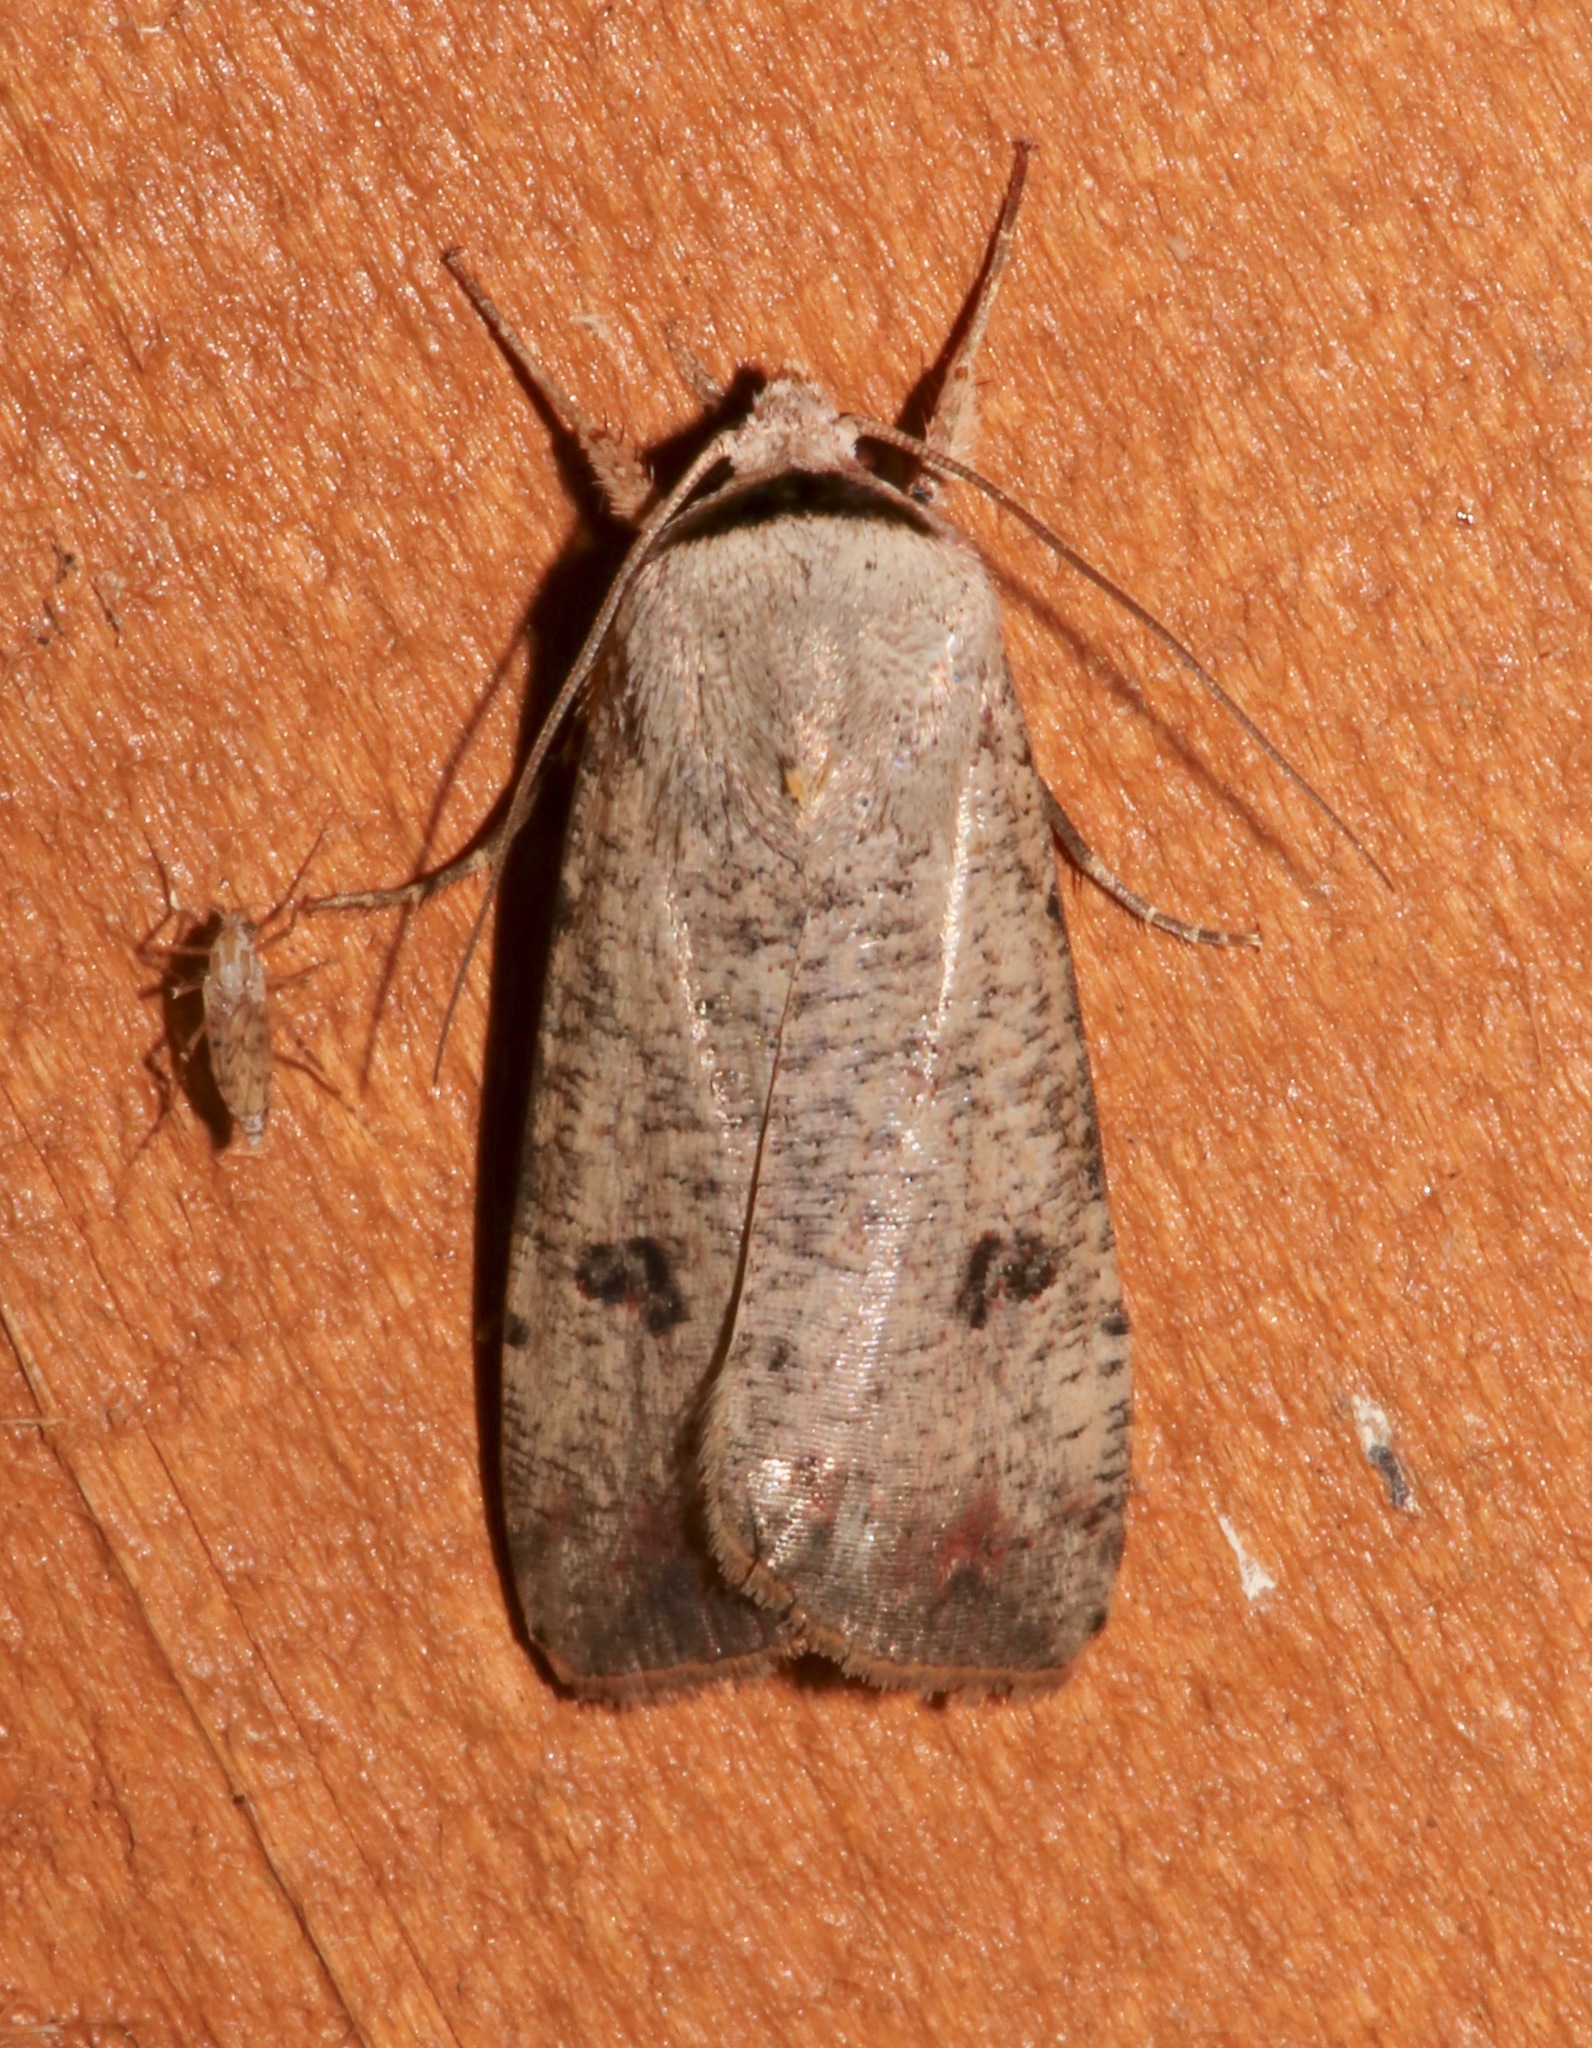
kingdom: Animalia
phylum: Arthropoda
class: Insecta
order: Lepidoptera
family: Noctuidae
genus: Anicla
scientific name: Anicla infecta
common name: Green cutworm
